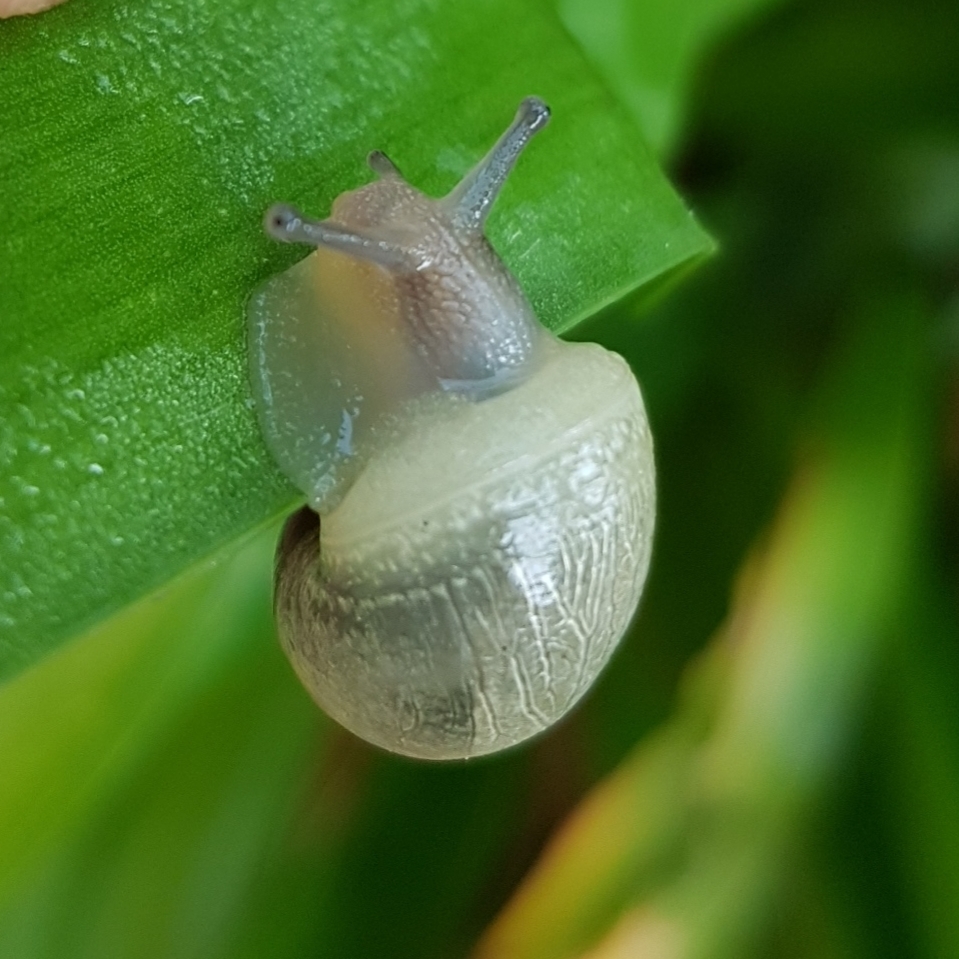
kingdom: Animalia
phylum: Mollusca
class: Gastropoda
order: Stylommatophora
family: Helicidae
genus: Eobania
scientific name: Eobania vermiculata
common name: Chocolateband snail
